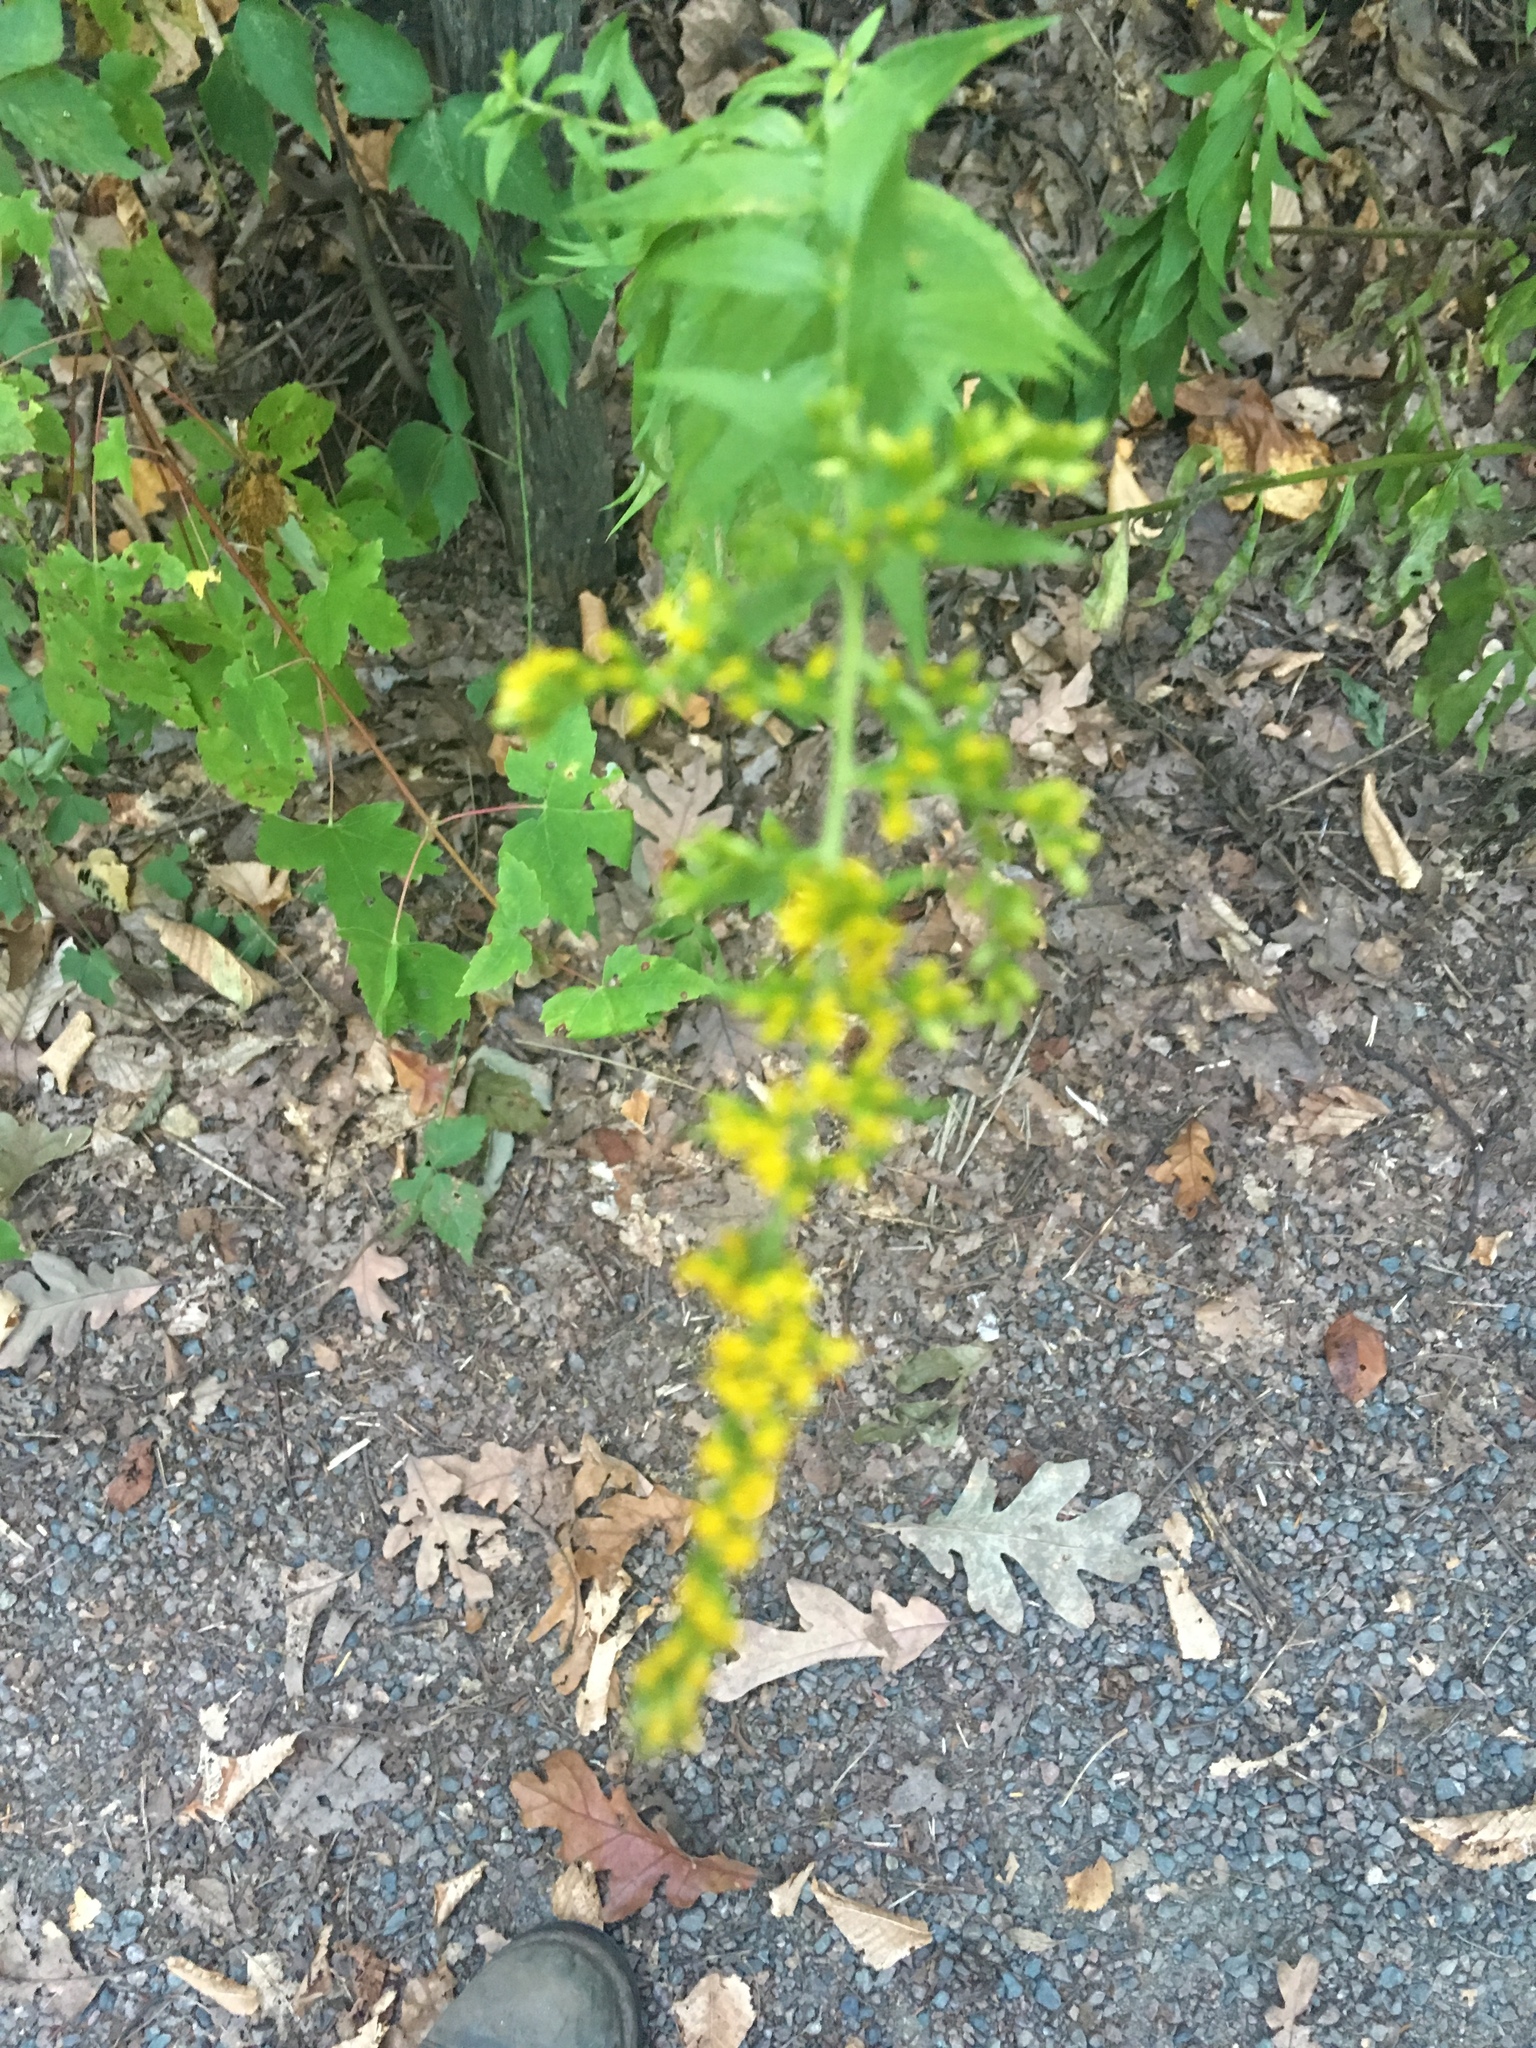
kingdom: Plantae
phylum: Tracheophyta
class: Magnoliopsida
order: Asterales
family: Asteraceae
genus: Solidago
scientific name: Solidago rugosa
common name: Rough-stemmed goldenrod
